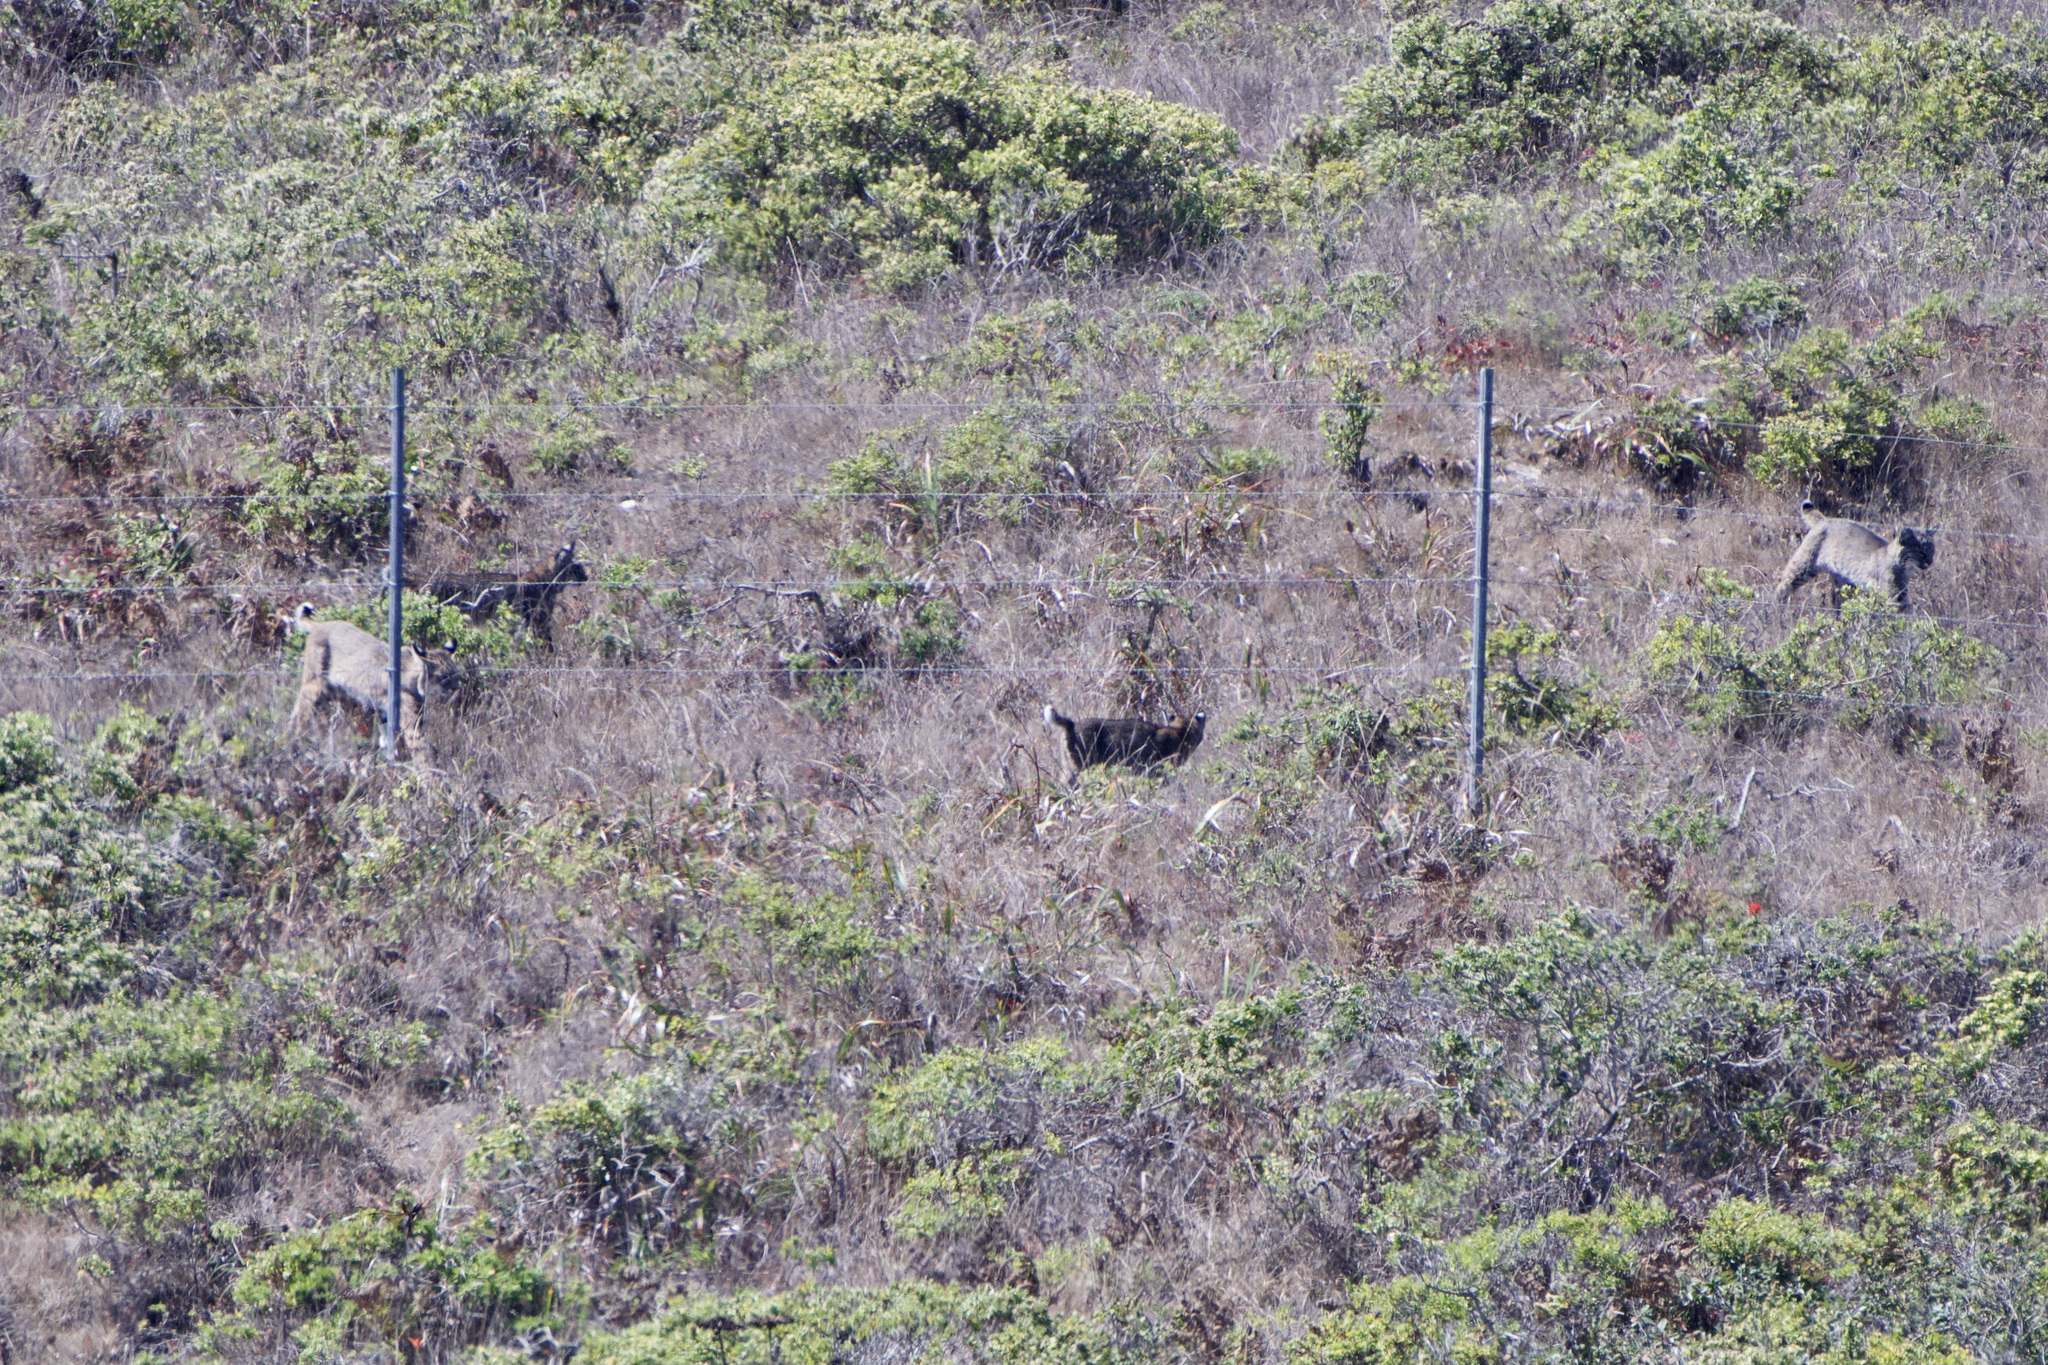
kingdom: Animalia
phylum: Chordata
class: Mammalia
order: Carnivora
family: Felidae
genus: Lynx
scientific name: Lynx rufus
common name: Bobcat
